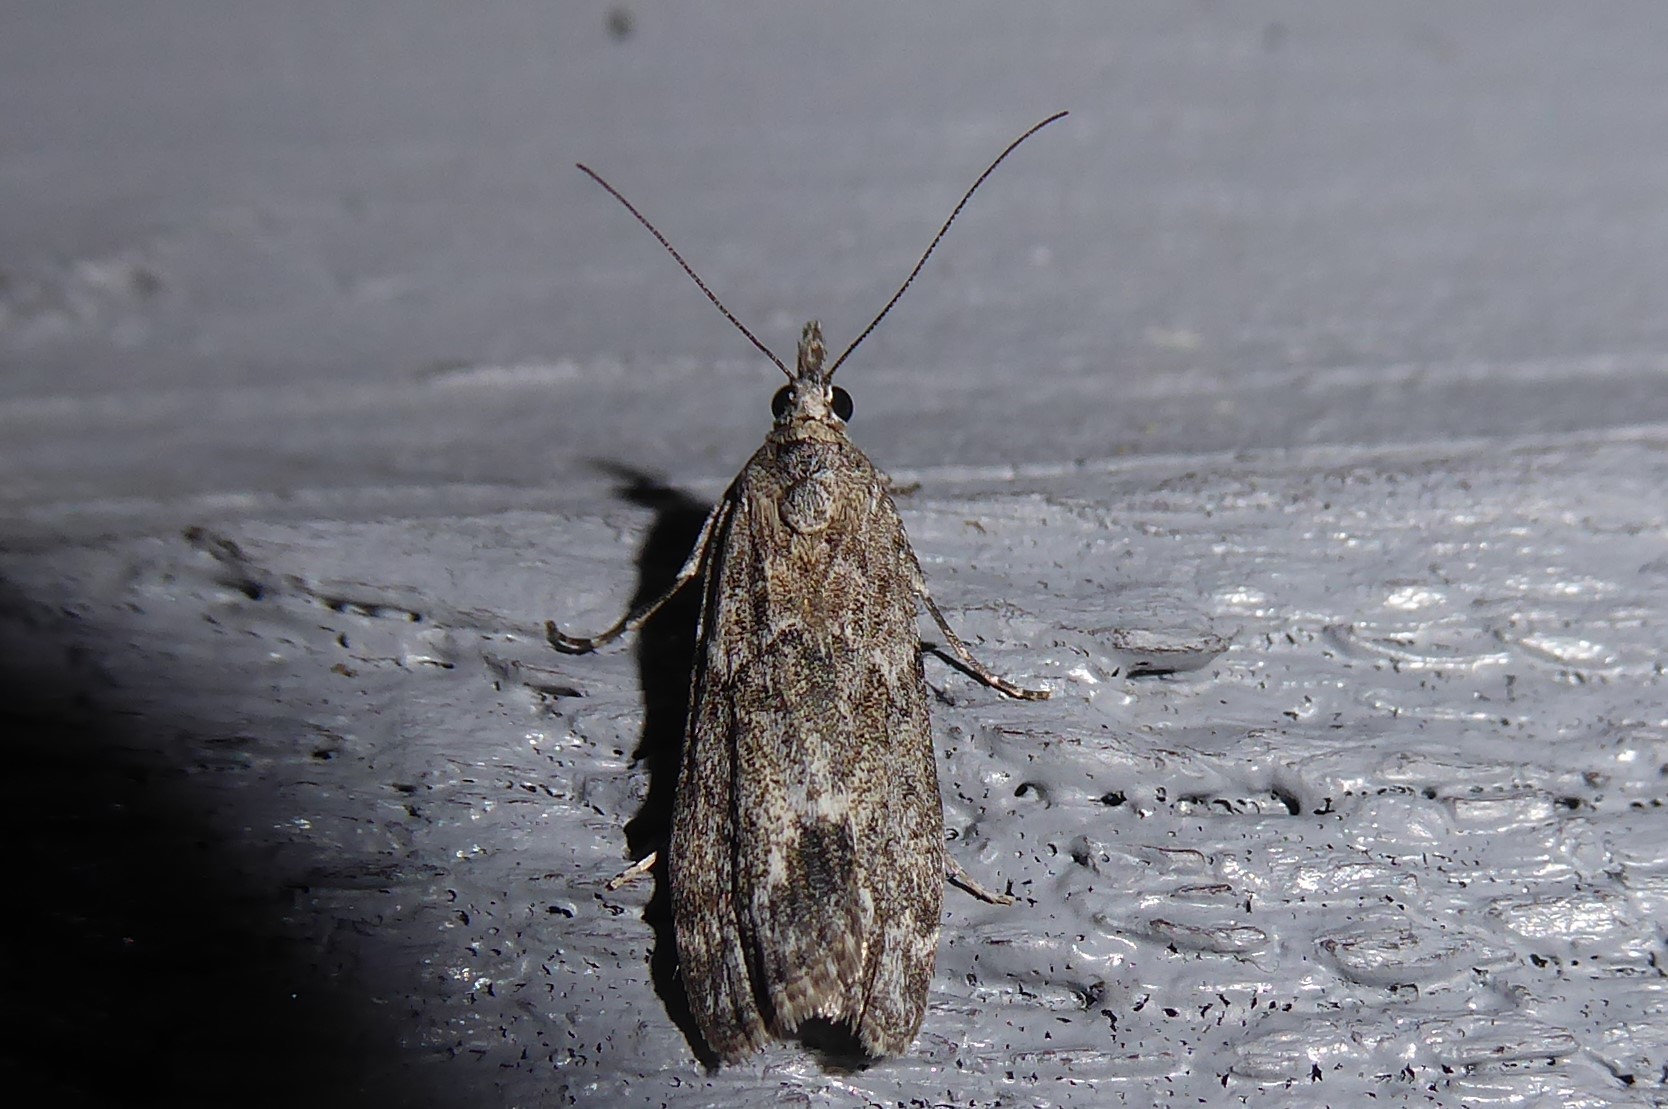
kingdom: Animalia
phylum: Arthropoda
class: Insecta
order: Lepidoptera
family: Crambidae
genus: Eudonia
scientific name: Eudonia rakaiensis
